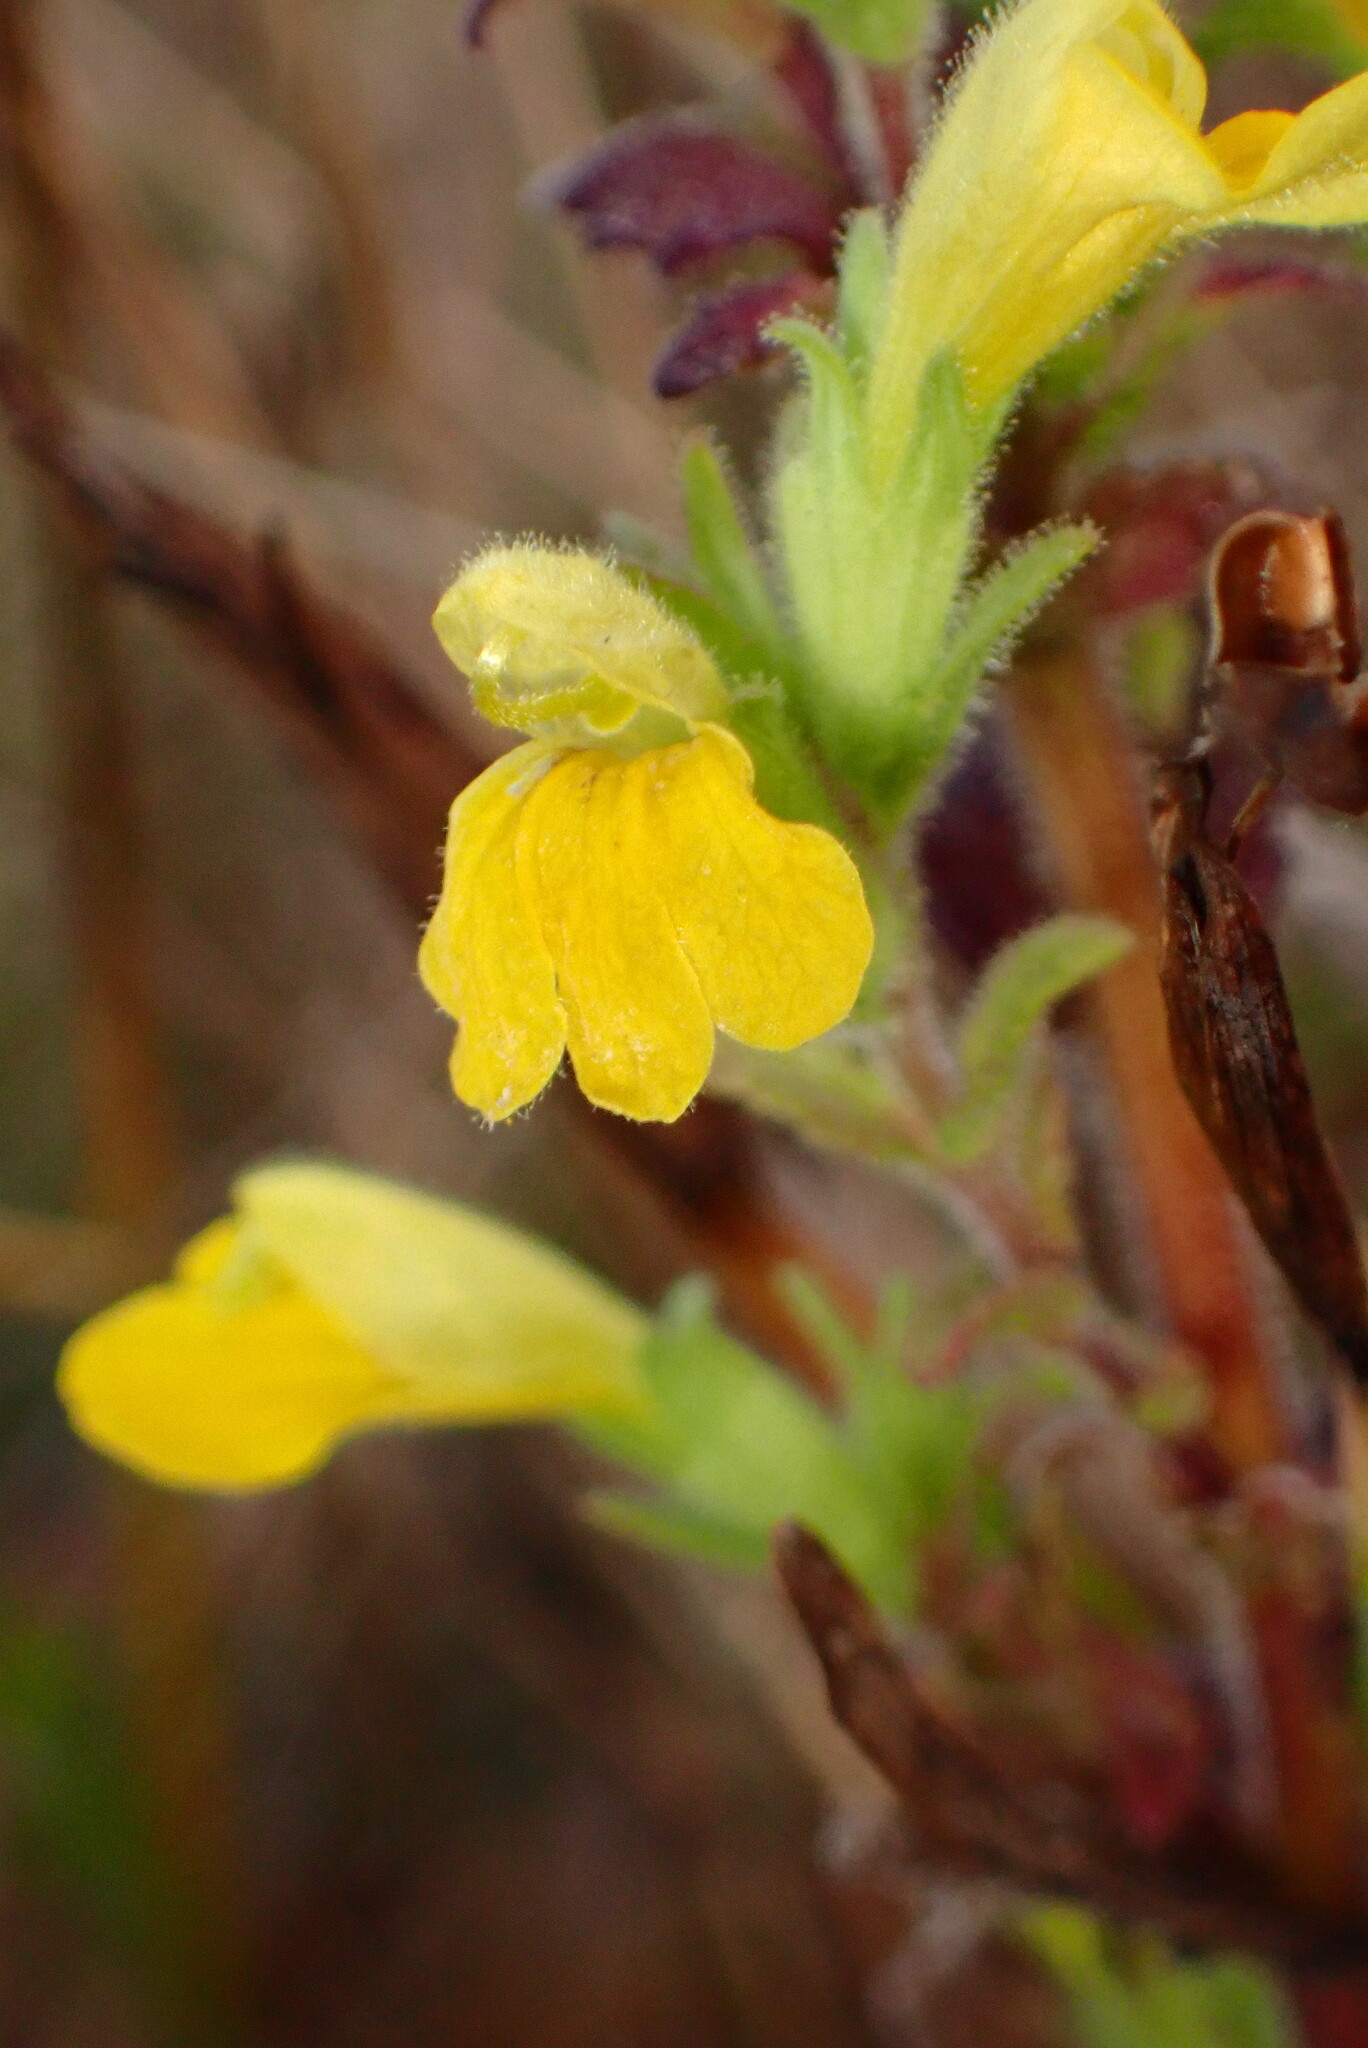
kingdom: Plantae
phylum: Tracheophyta
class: Magnoliopsida
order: Lamiales
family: Orobanchaceae
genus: Bellardia
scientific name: Bellardia viscosa
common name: Sticky parentucellia
